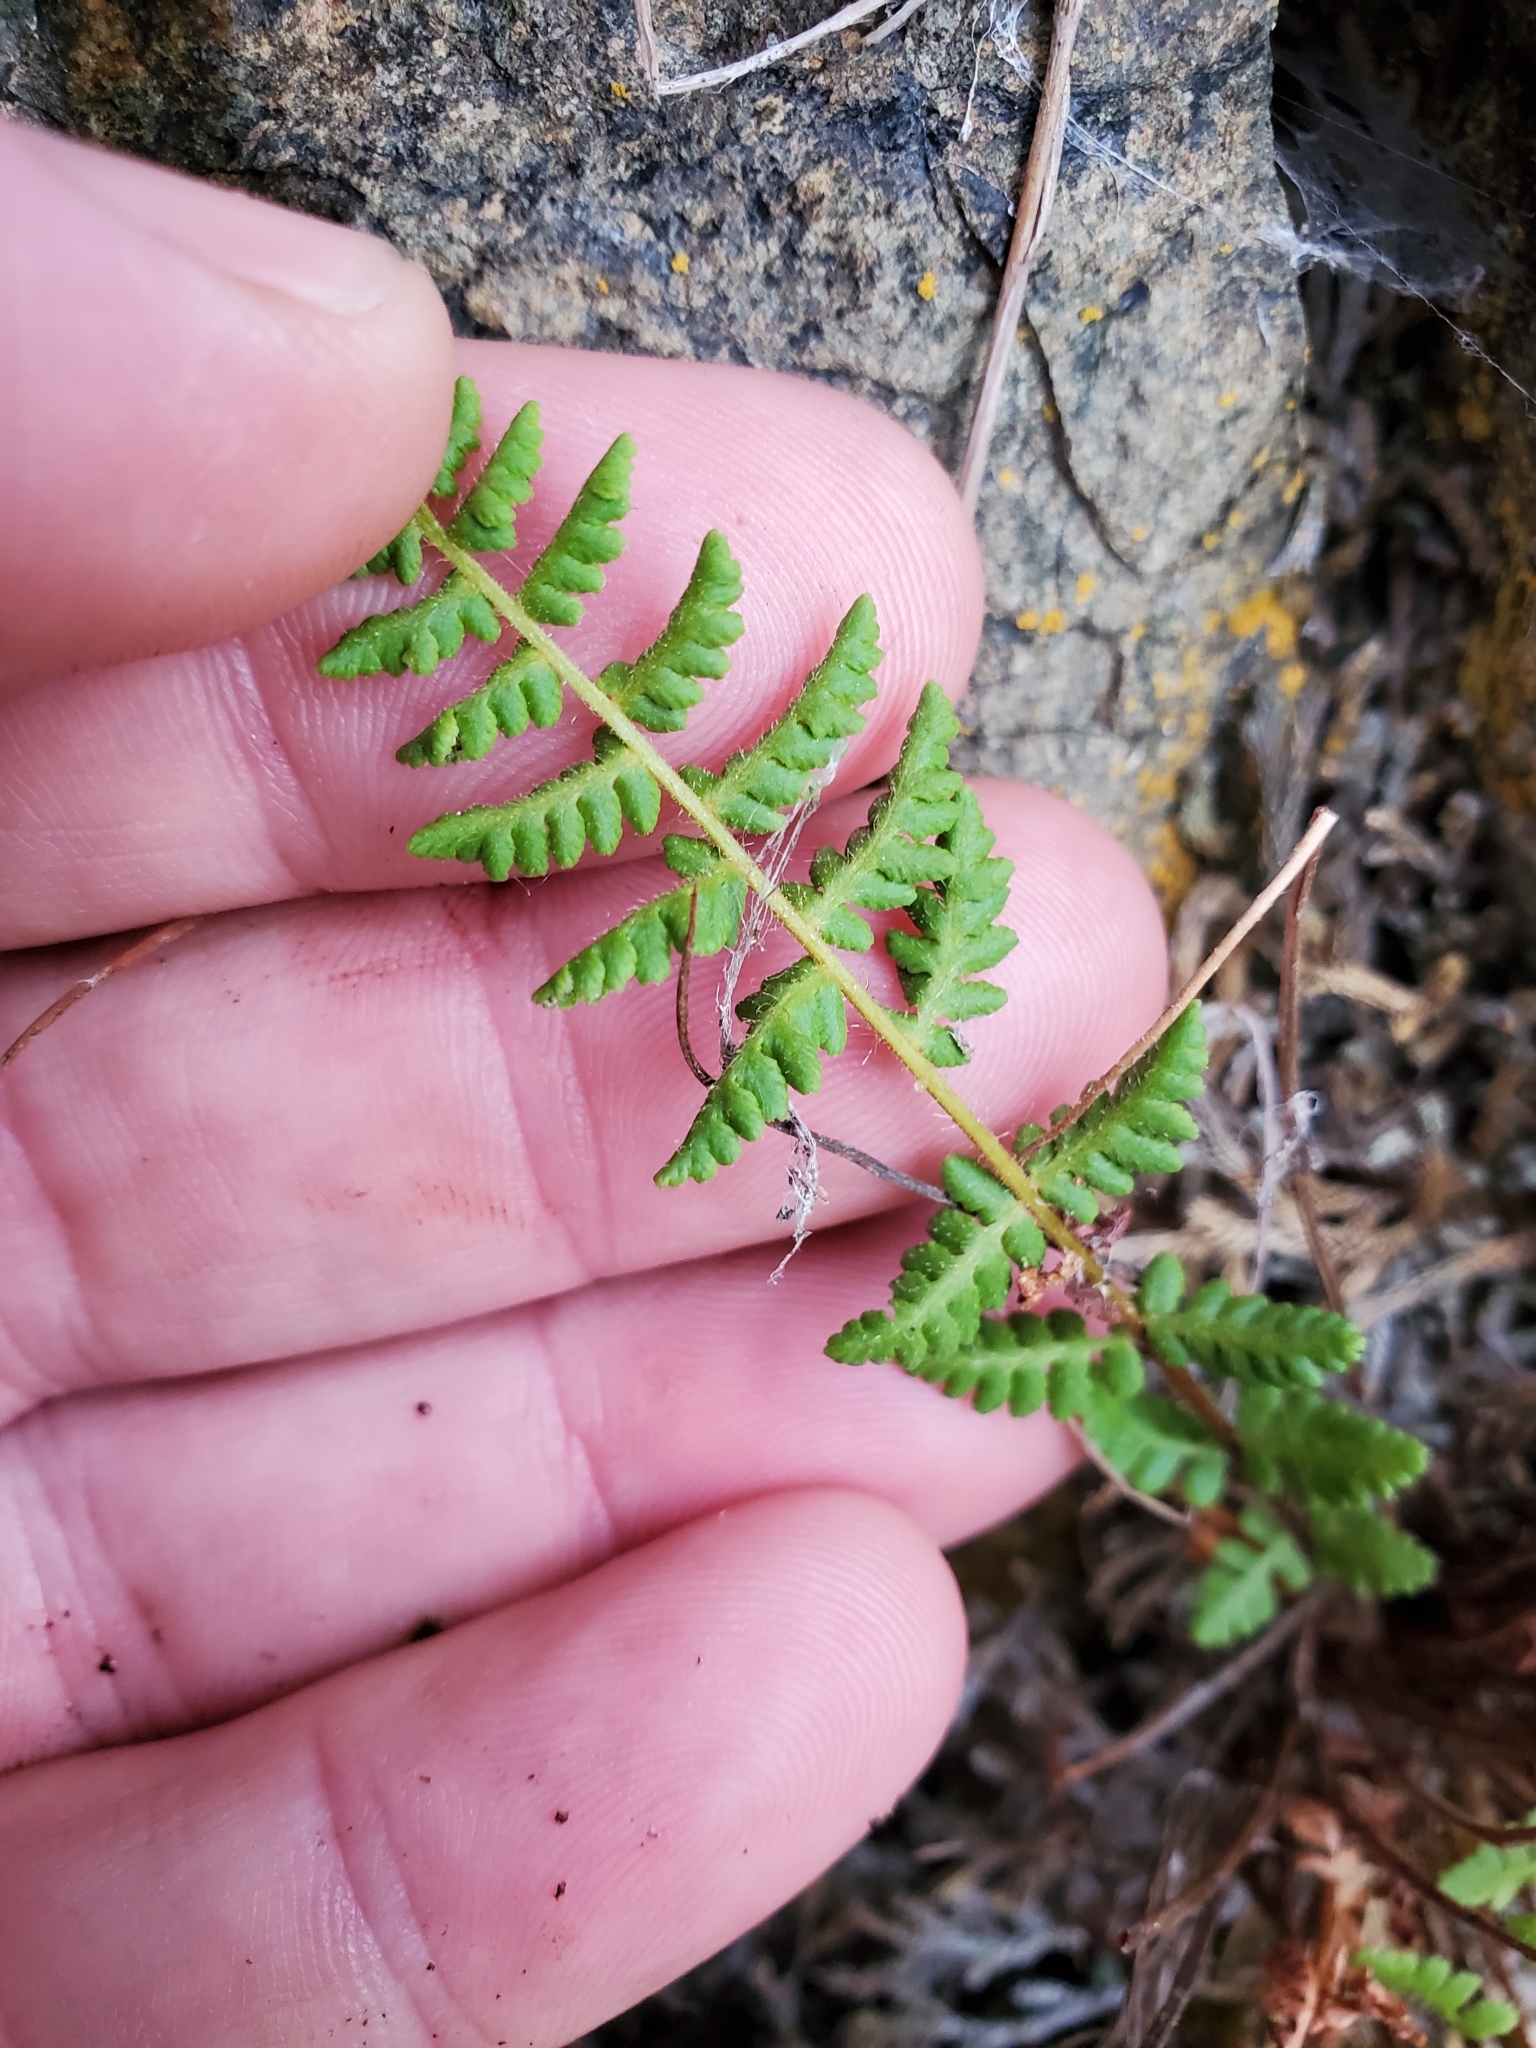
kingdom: Plantae
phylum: Tracheophyta
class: Polypodiopsida
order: Polypodiales
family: Woodsiaceae
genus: Physematium
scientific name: Physematium scopulinum
